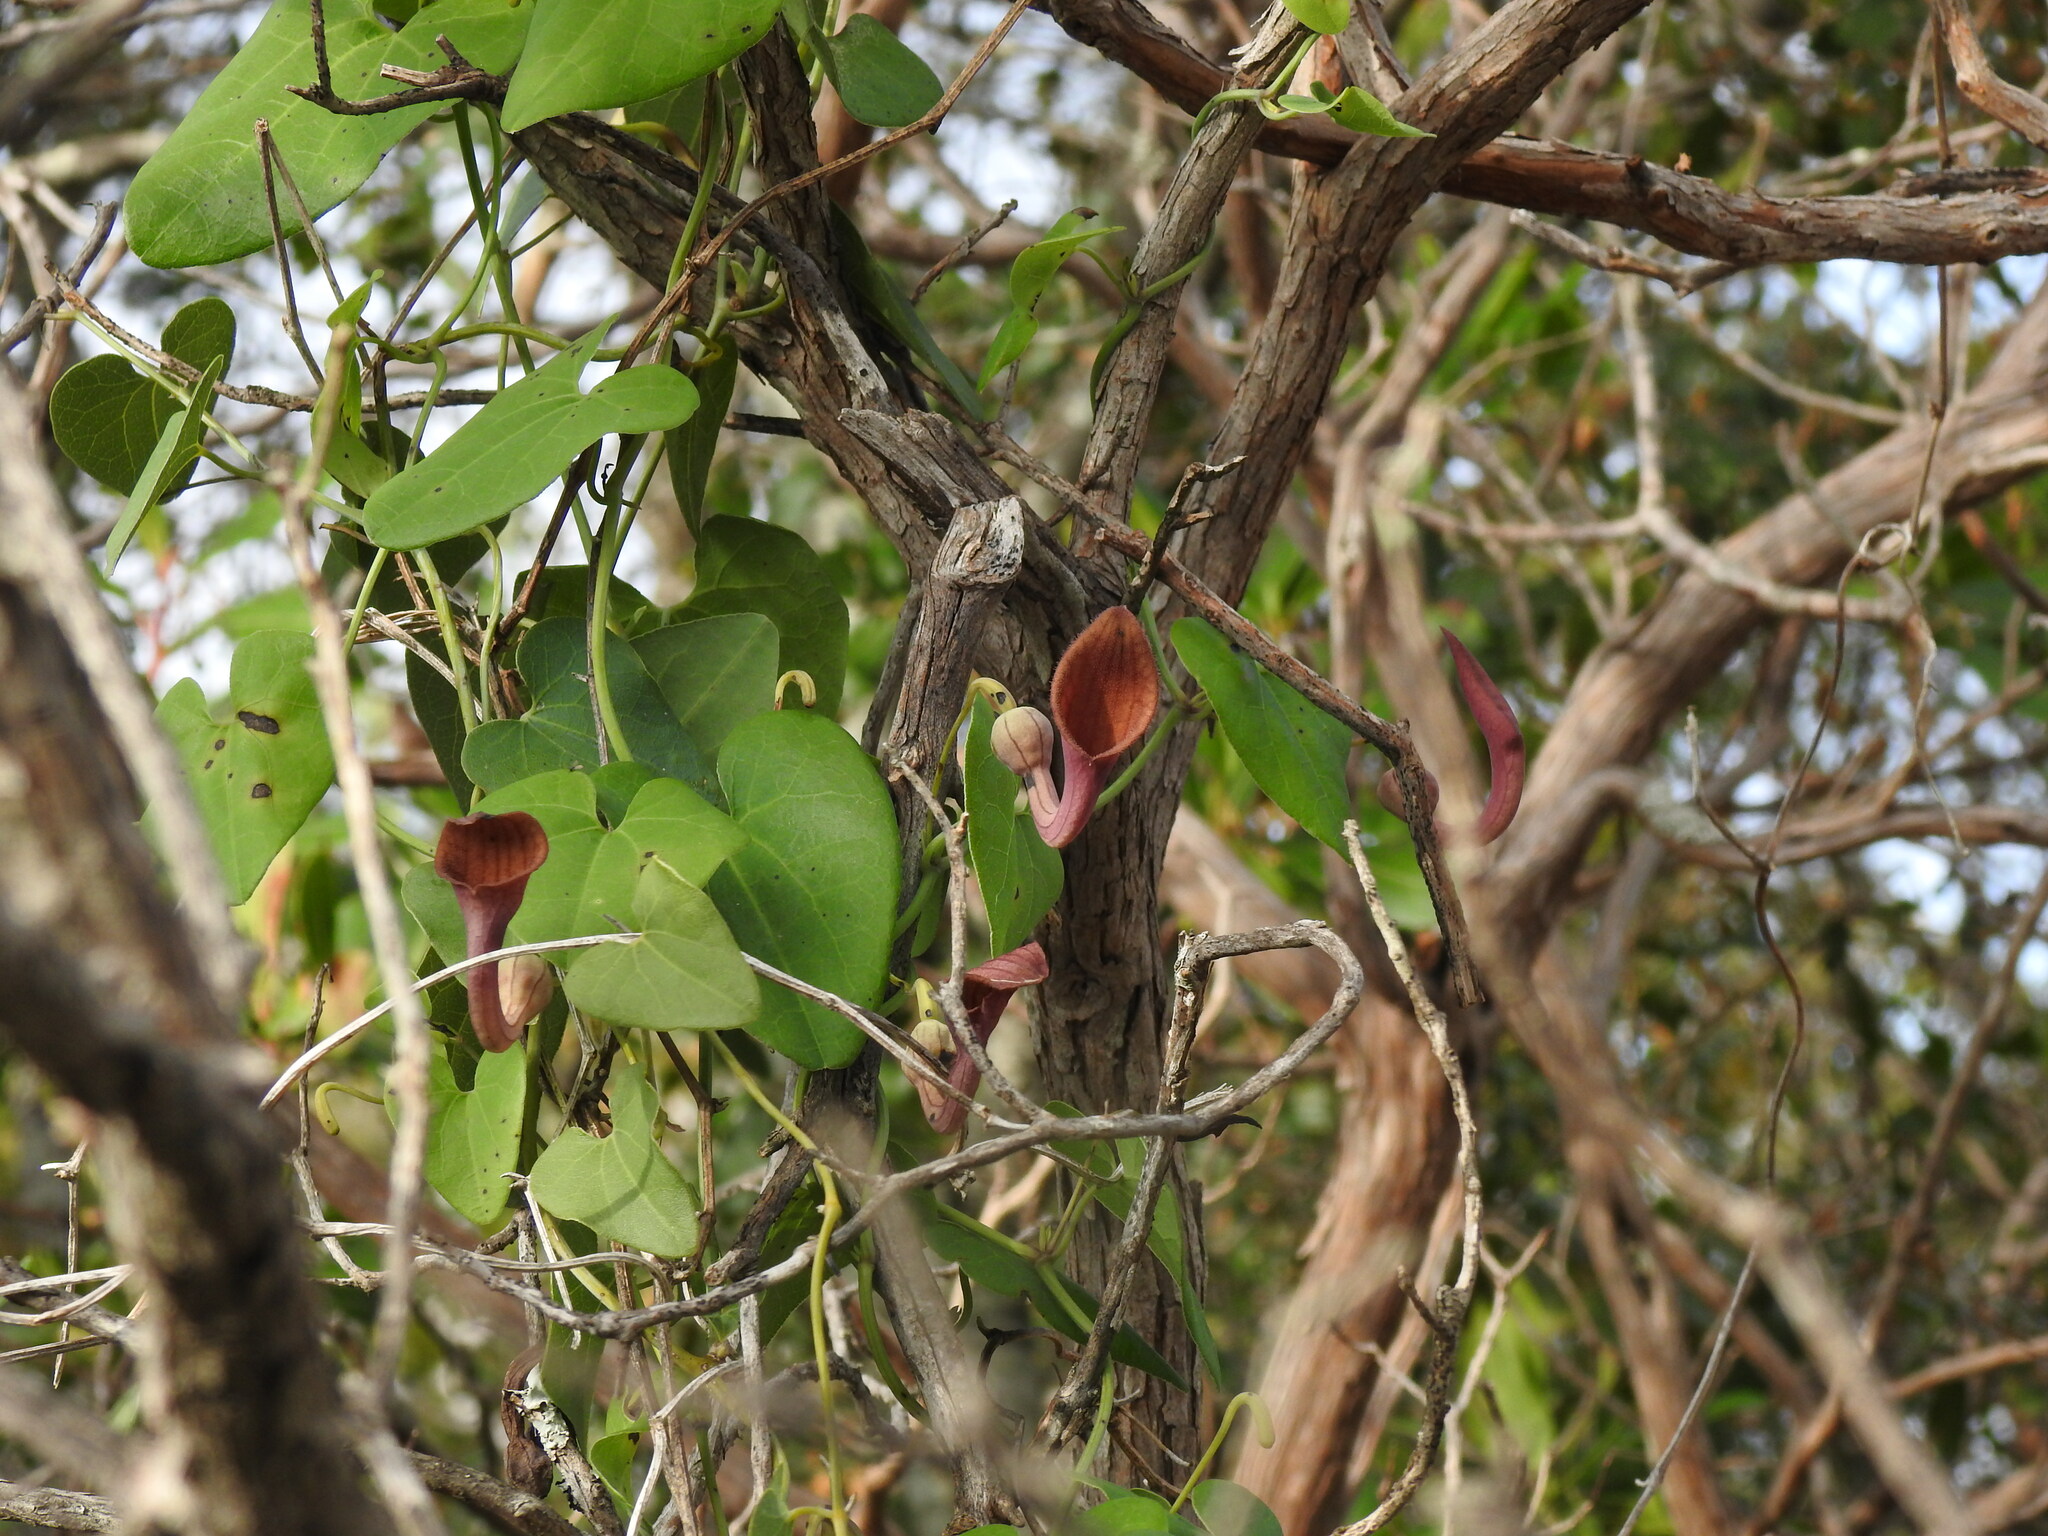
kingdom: Plantae
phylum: Tracheophyta
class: Magnoliopsida
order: Piperales
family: Aristolochiaceae
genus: Aristolochia
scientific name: Aristolochia baetica
